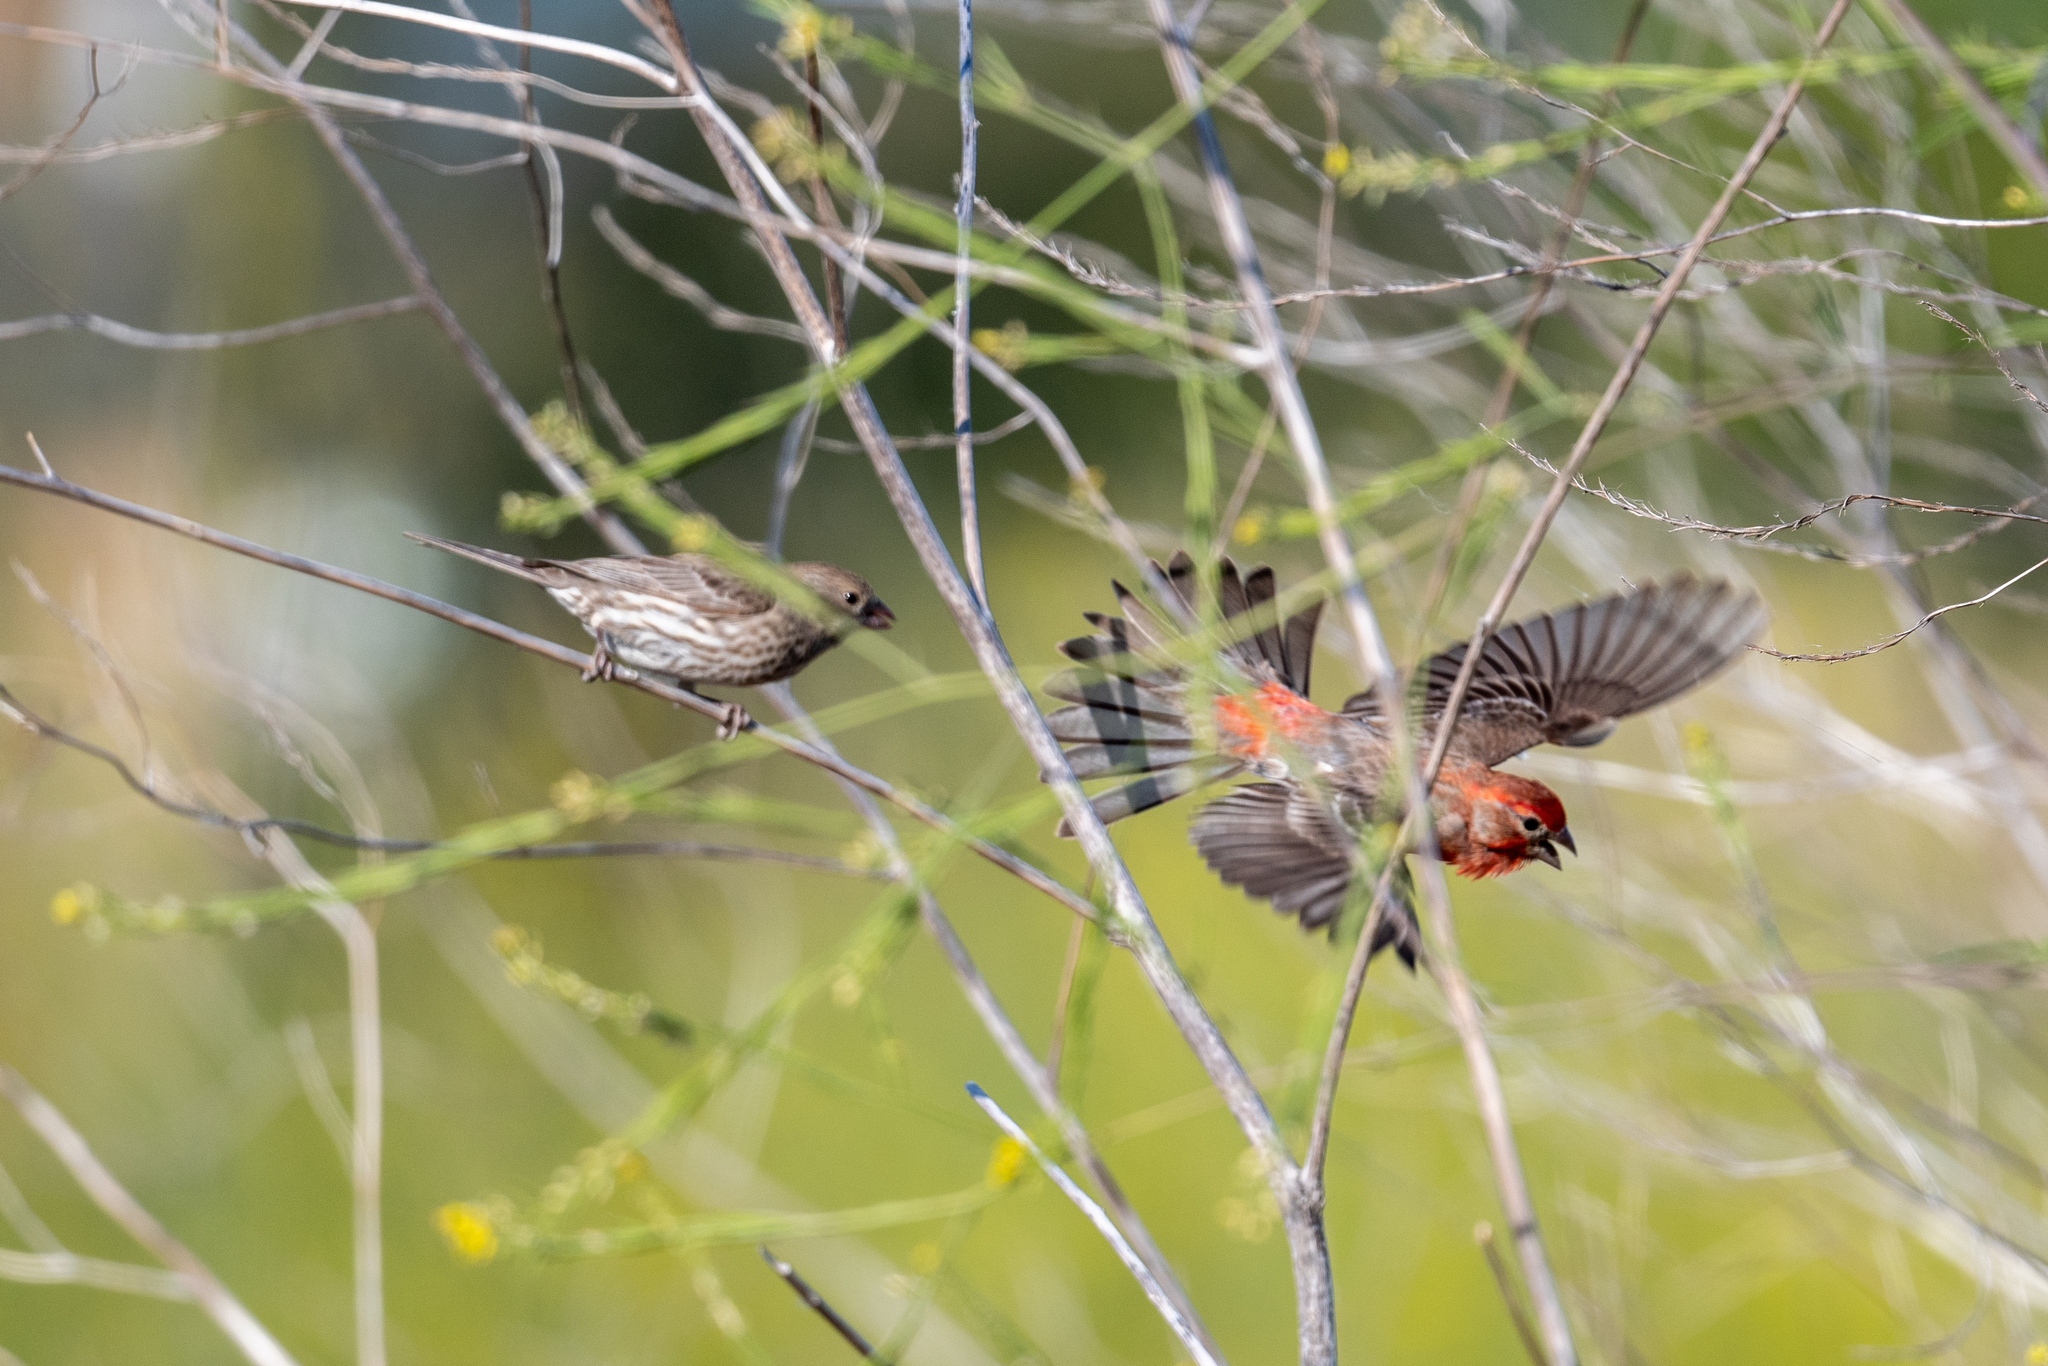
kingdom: Animalia
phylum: Chordata
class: Aves
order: Passeriformes
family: Fringillidae
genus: Haemorhous
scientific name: Haemorhous mexicanus
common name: House finch
